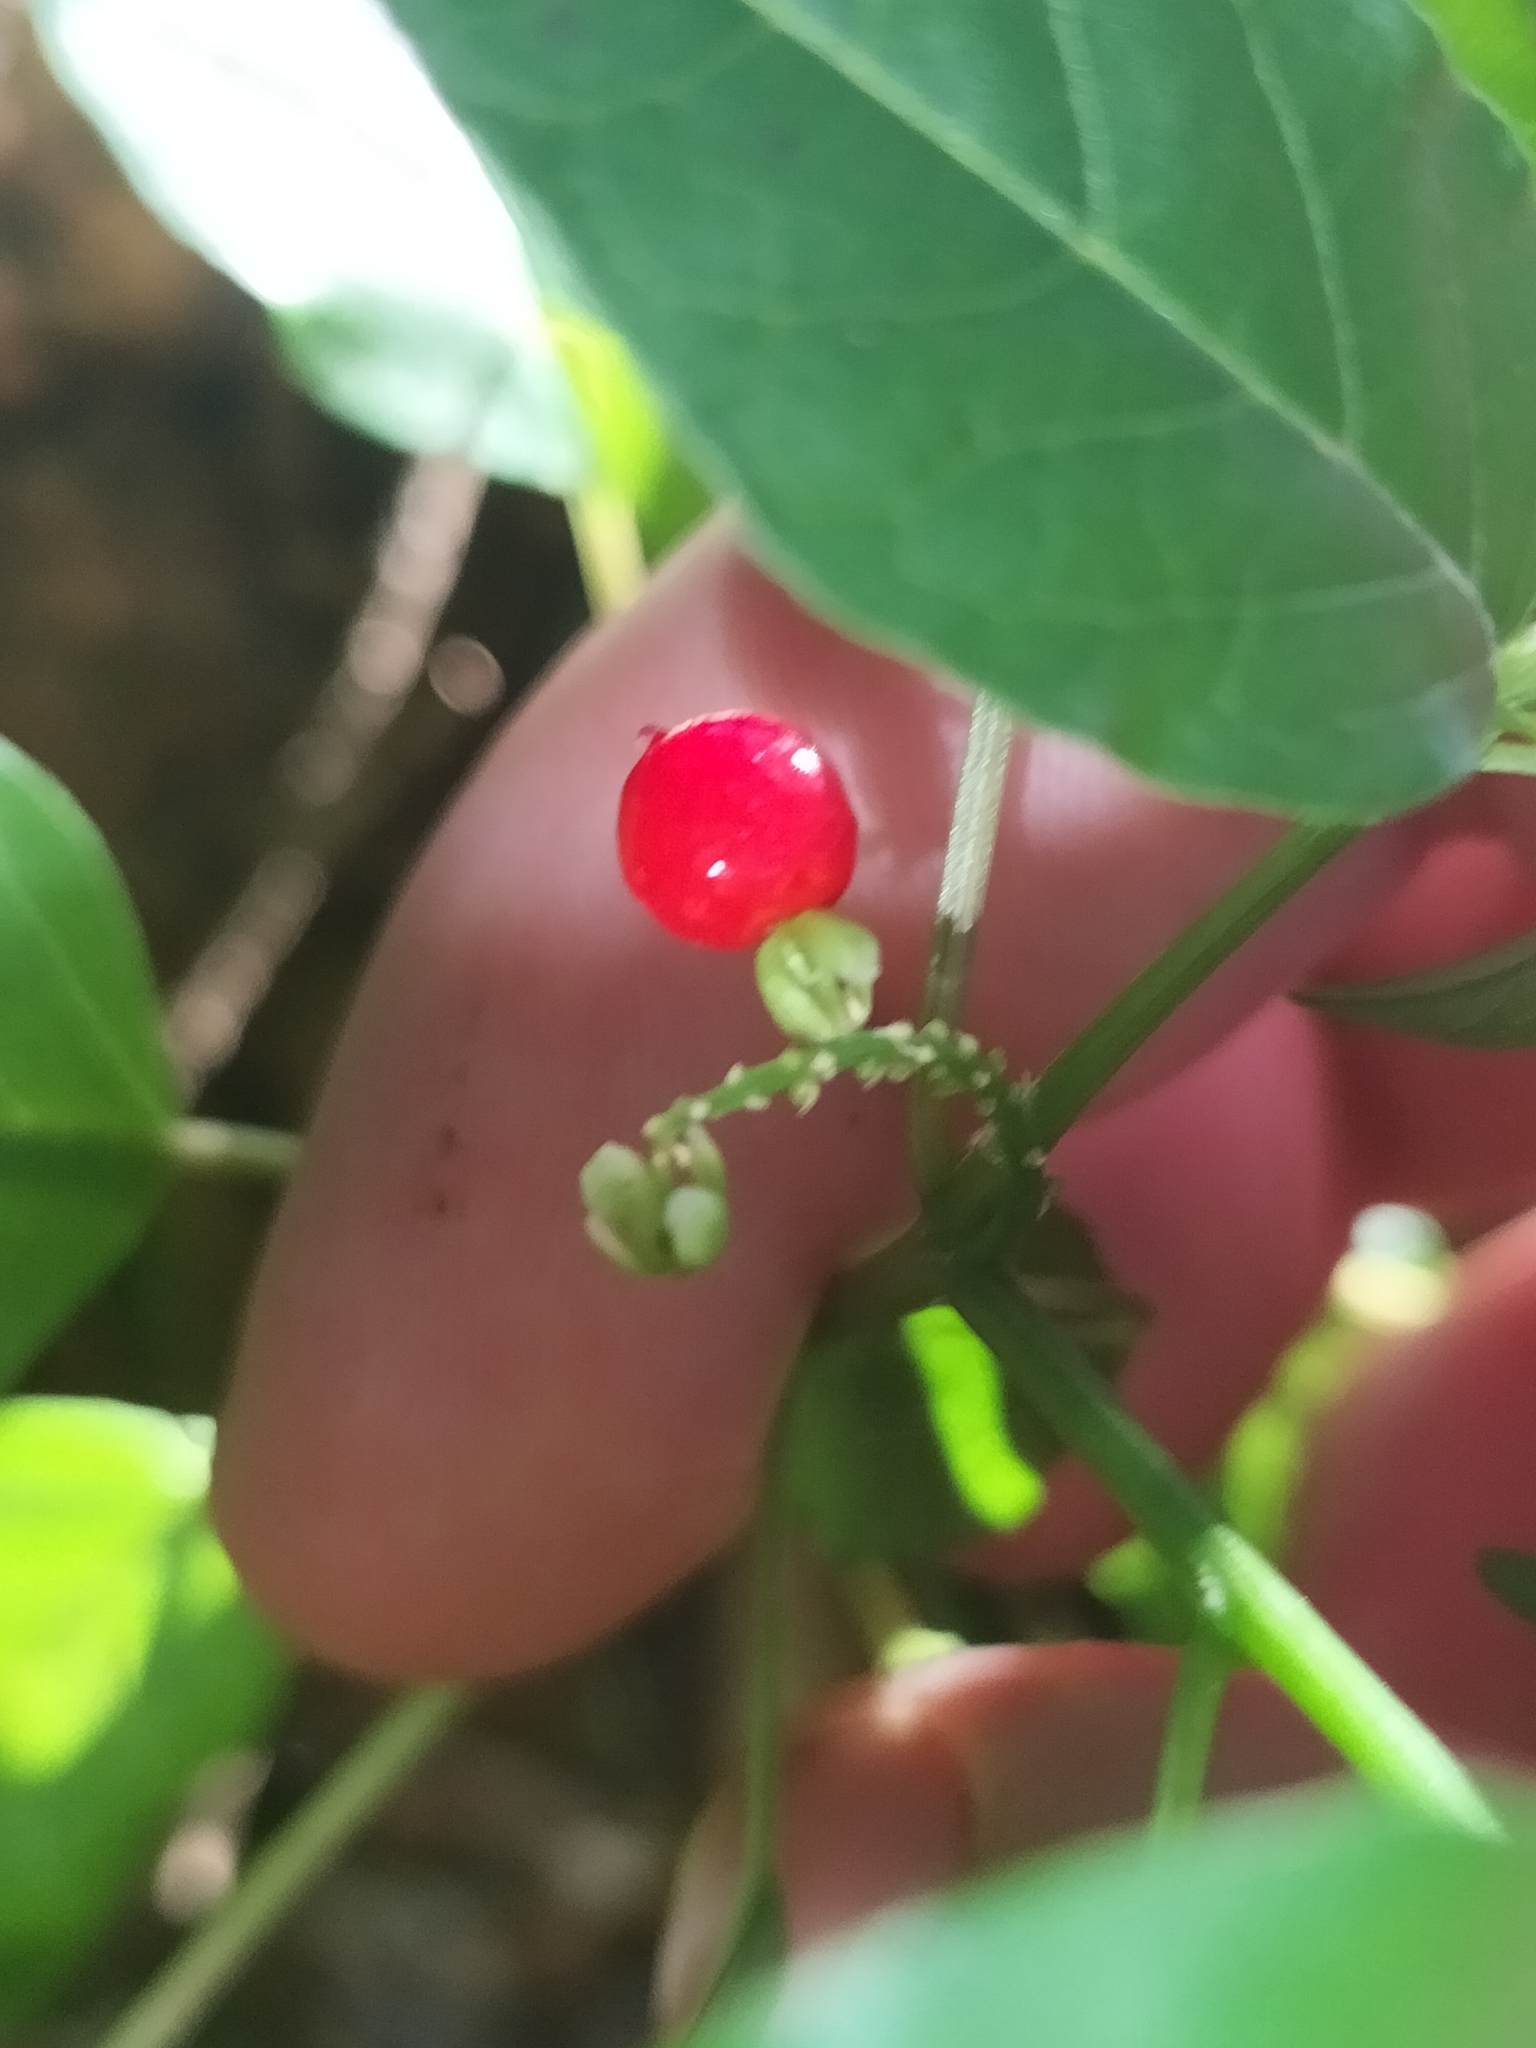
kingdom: Plantae
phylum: Tracheophyta
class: Magnoliopsida
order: Caryophyllales
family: Phytolaccaceae
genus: Rivina
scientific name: Rivina humilis
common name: Rougeplant
